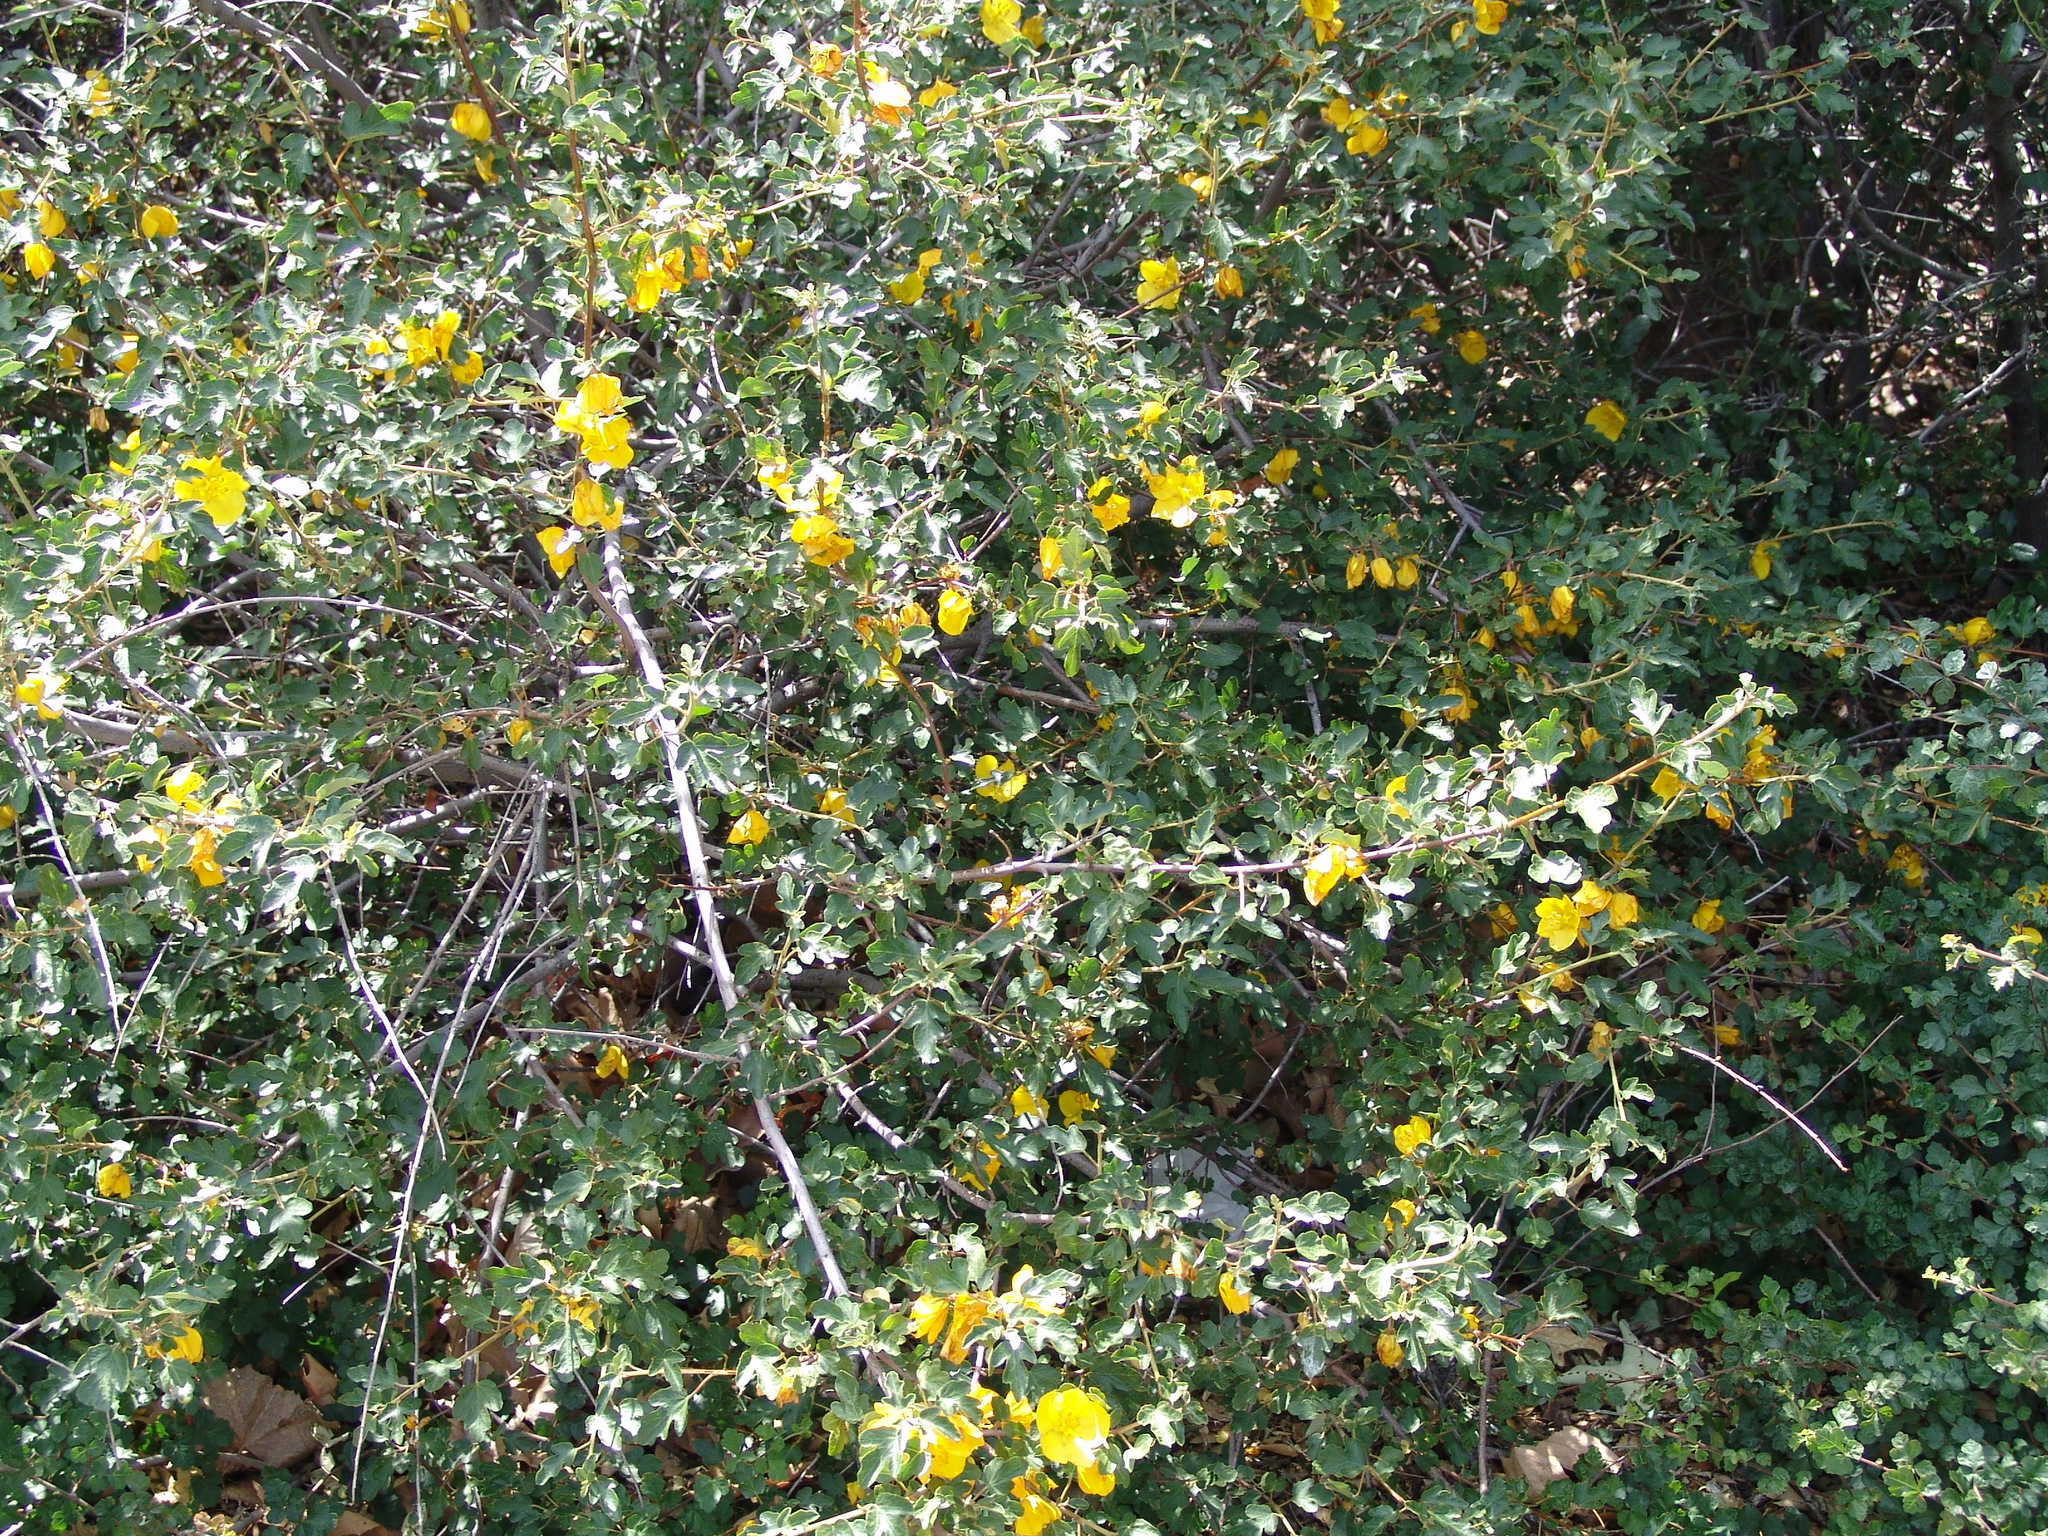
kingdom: Plantae
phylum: Tracheophyta
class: Magnoliopsida
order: Malvales
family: Malvaceae
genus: Fremontodendron
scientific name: Fremontodendron californicum
